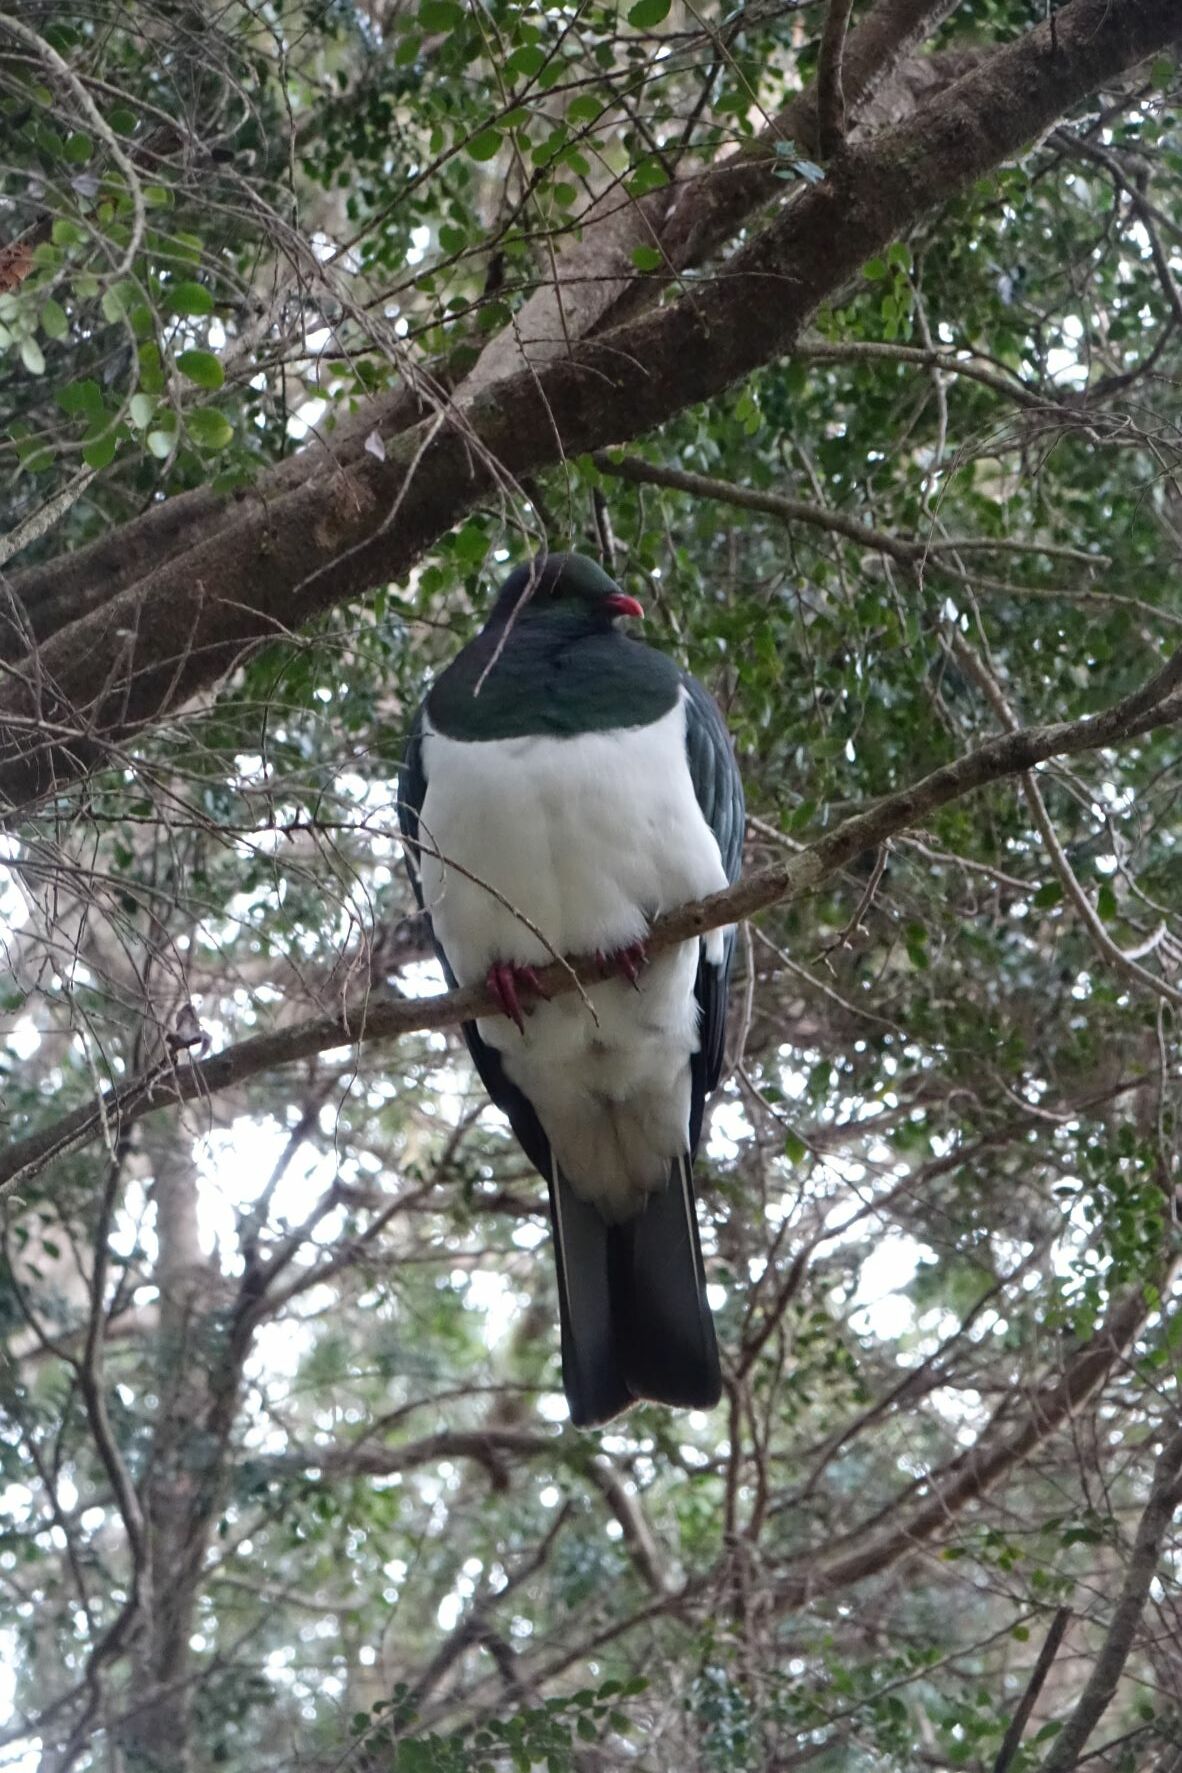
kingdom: Animalia
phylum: Chordata
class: Aves
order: Columbiformes
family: Columbidae
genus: Hemiphaga
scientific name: Hemiphaga novaeseelandiae
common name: New zealand pigeon
